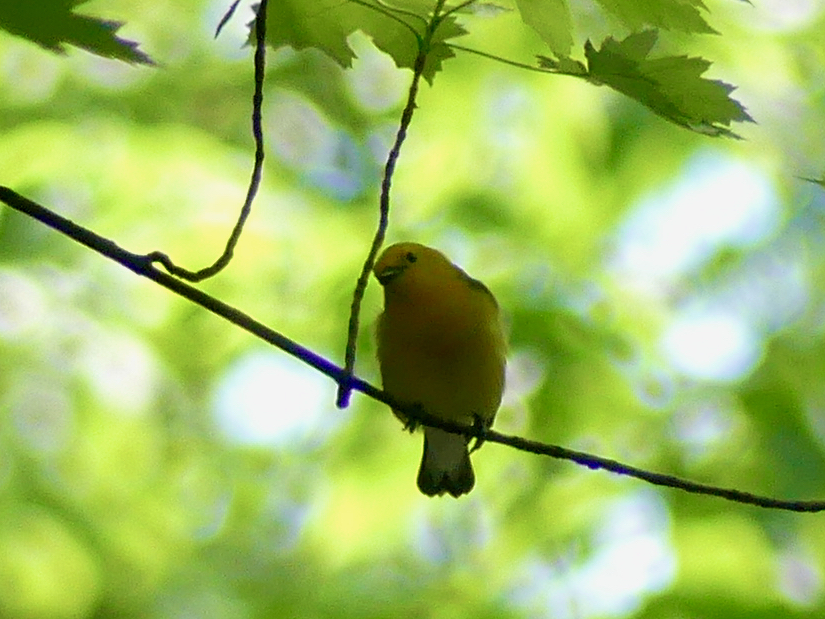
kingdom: Animalia
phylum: Chordata
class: Aves
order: Passeriformes
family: Parulidae
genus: Protonotaria
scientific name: Protonotaria citrea
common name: Prothonotary warbler
